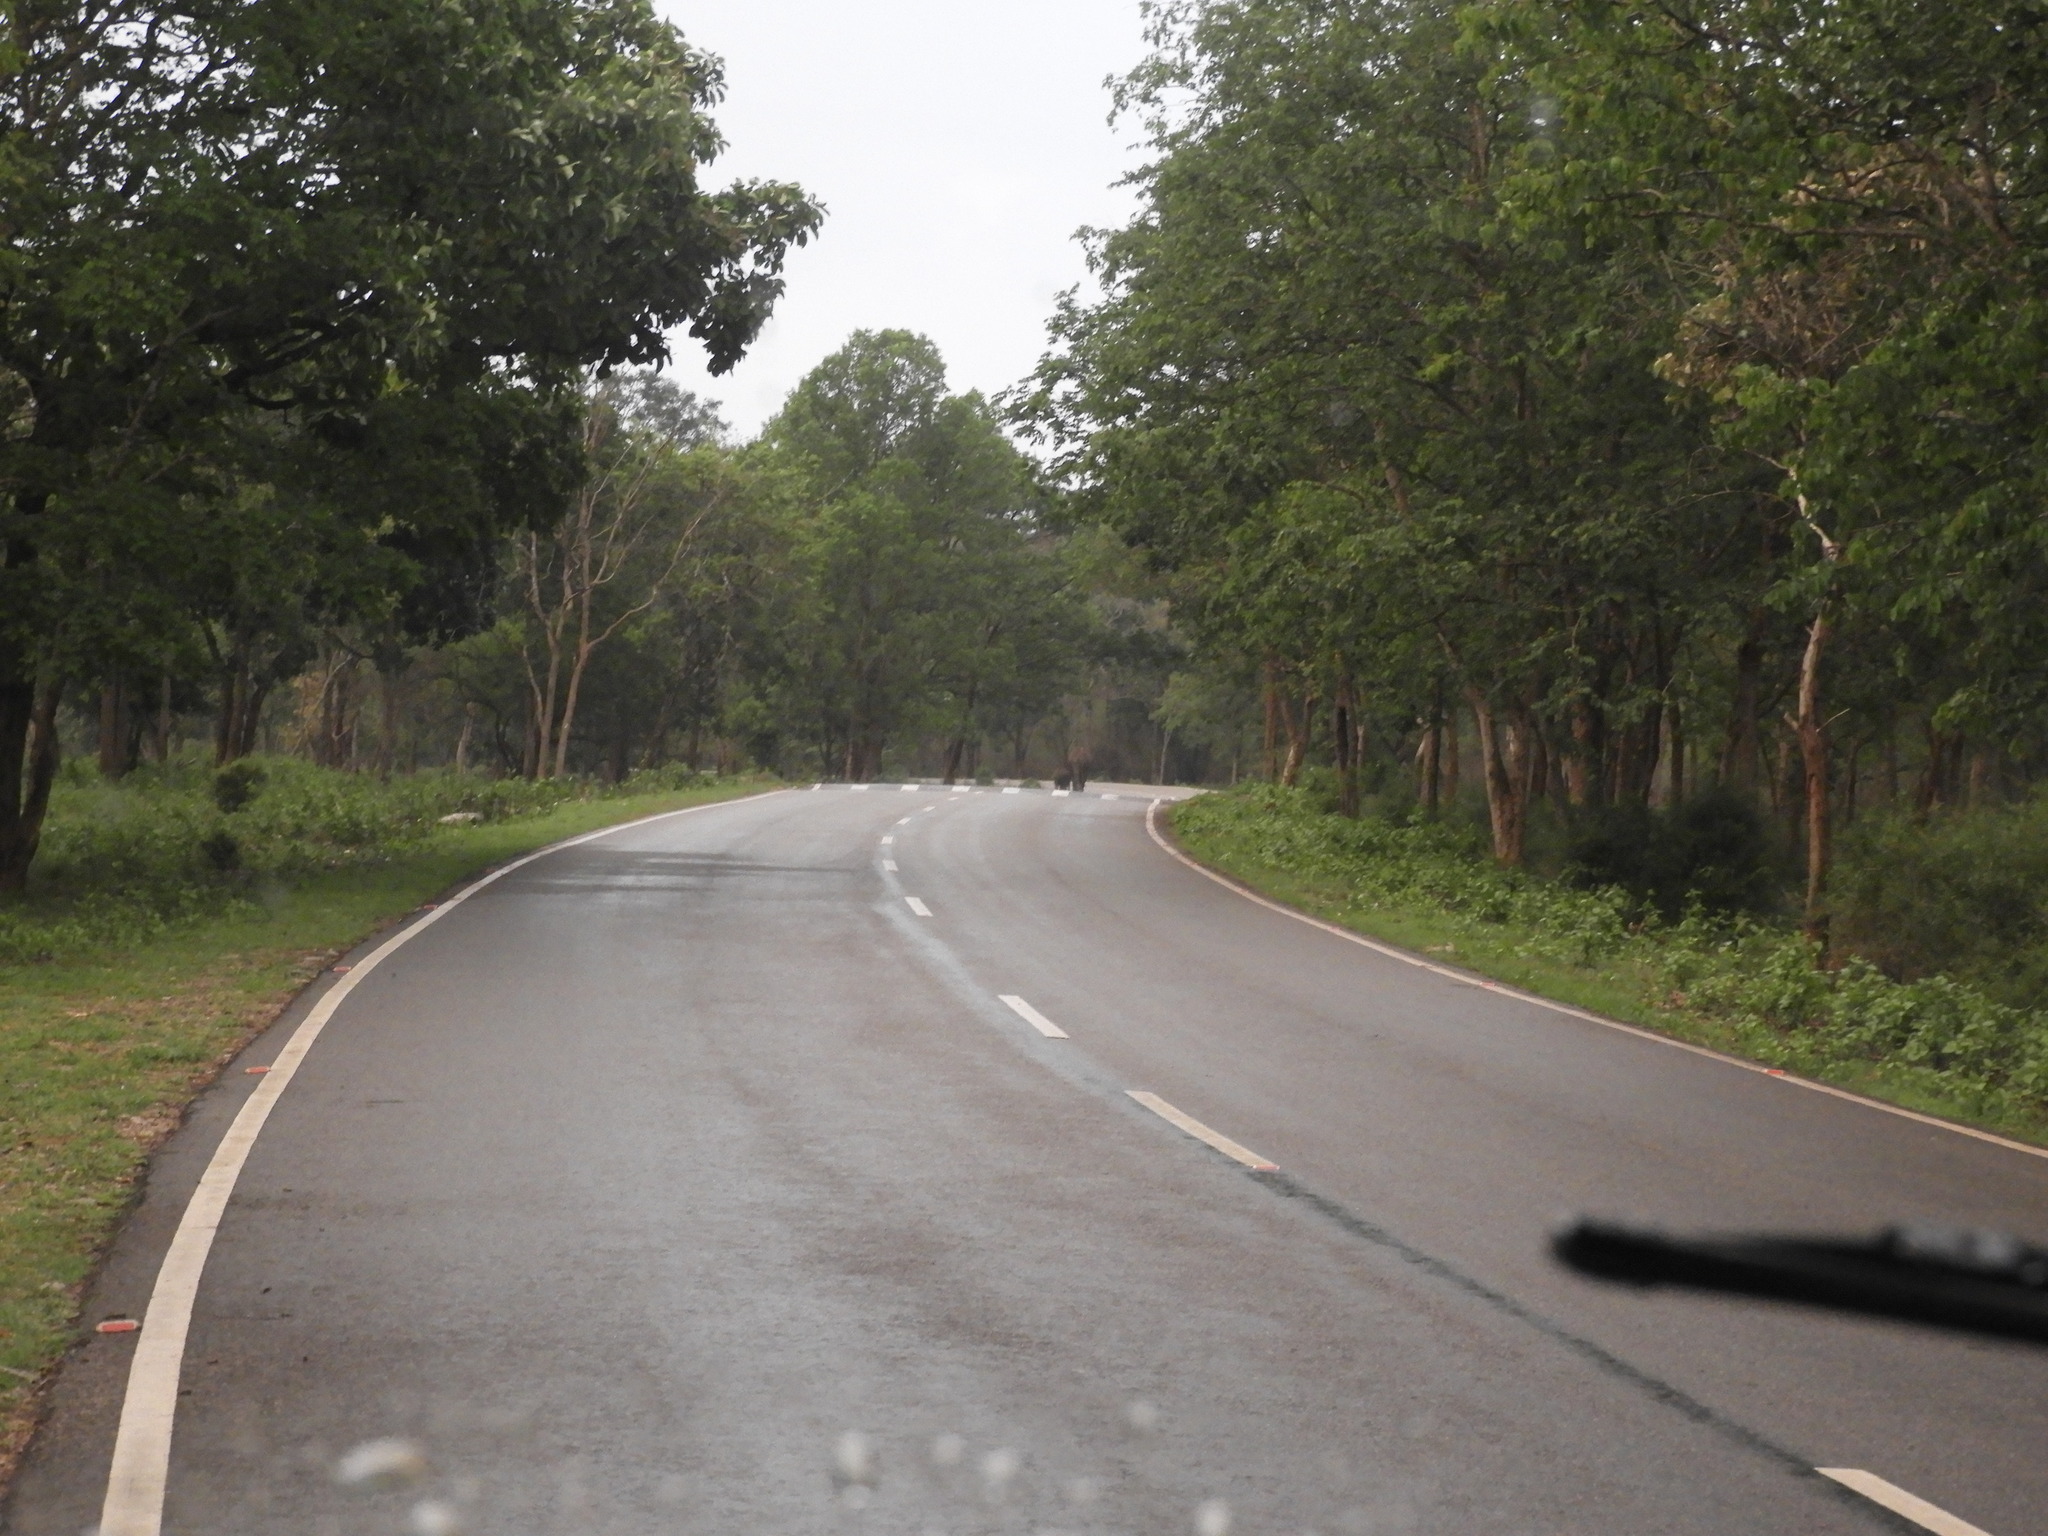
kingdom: Animalia
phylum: Chordata
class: Mammalia
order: Proboscidea
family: Elephantidae
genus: Elephas
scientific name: Elephas maximus
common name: Asian elephant
